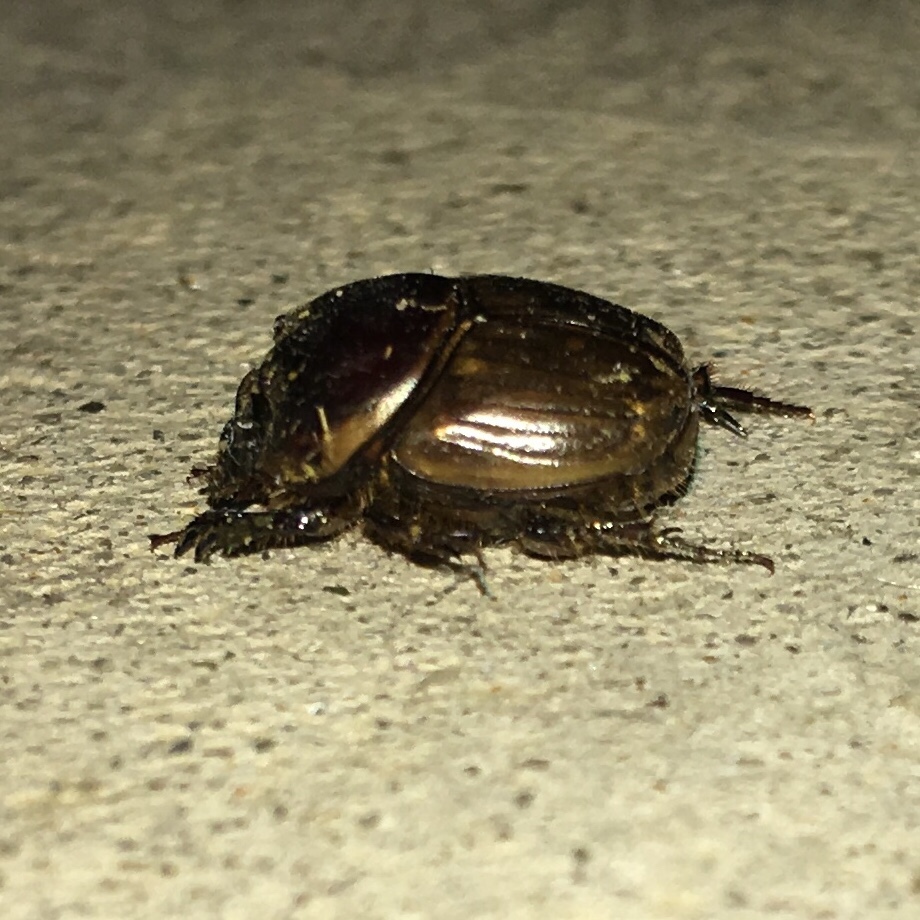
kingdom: Animalia
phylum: Arthropoda
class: Insecta
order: Coleoptera
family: Scarabaeidae
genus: Digitonthophagus
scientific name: Digitonthophagus gazella
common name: Brown dung beetle
